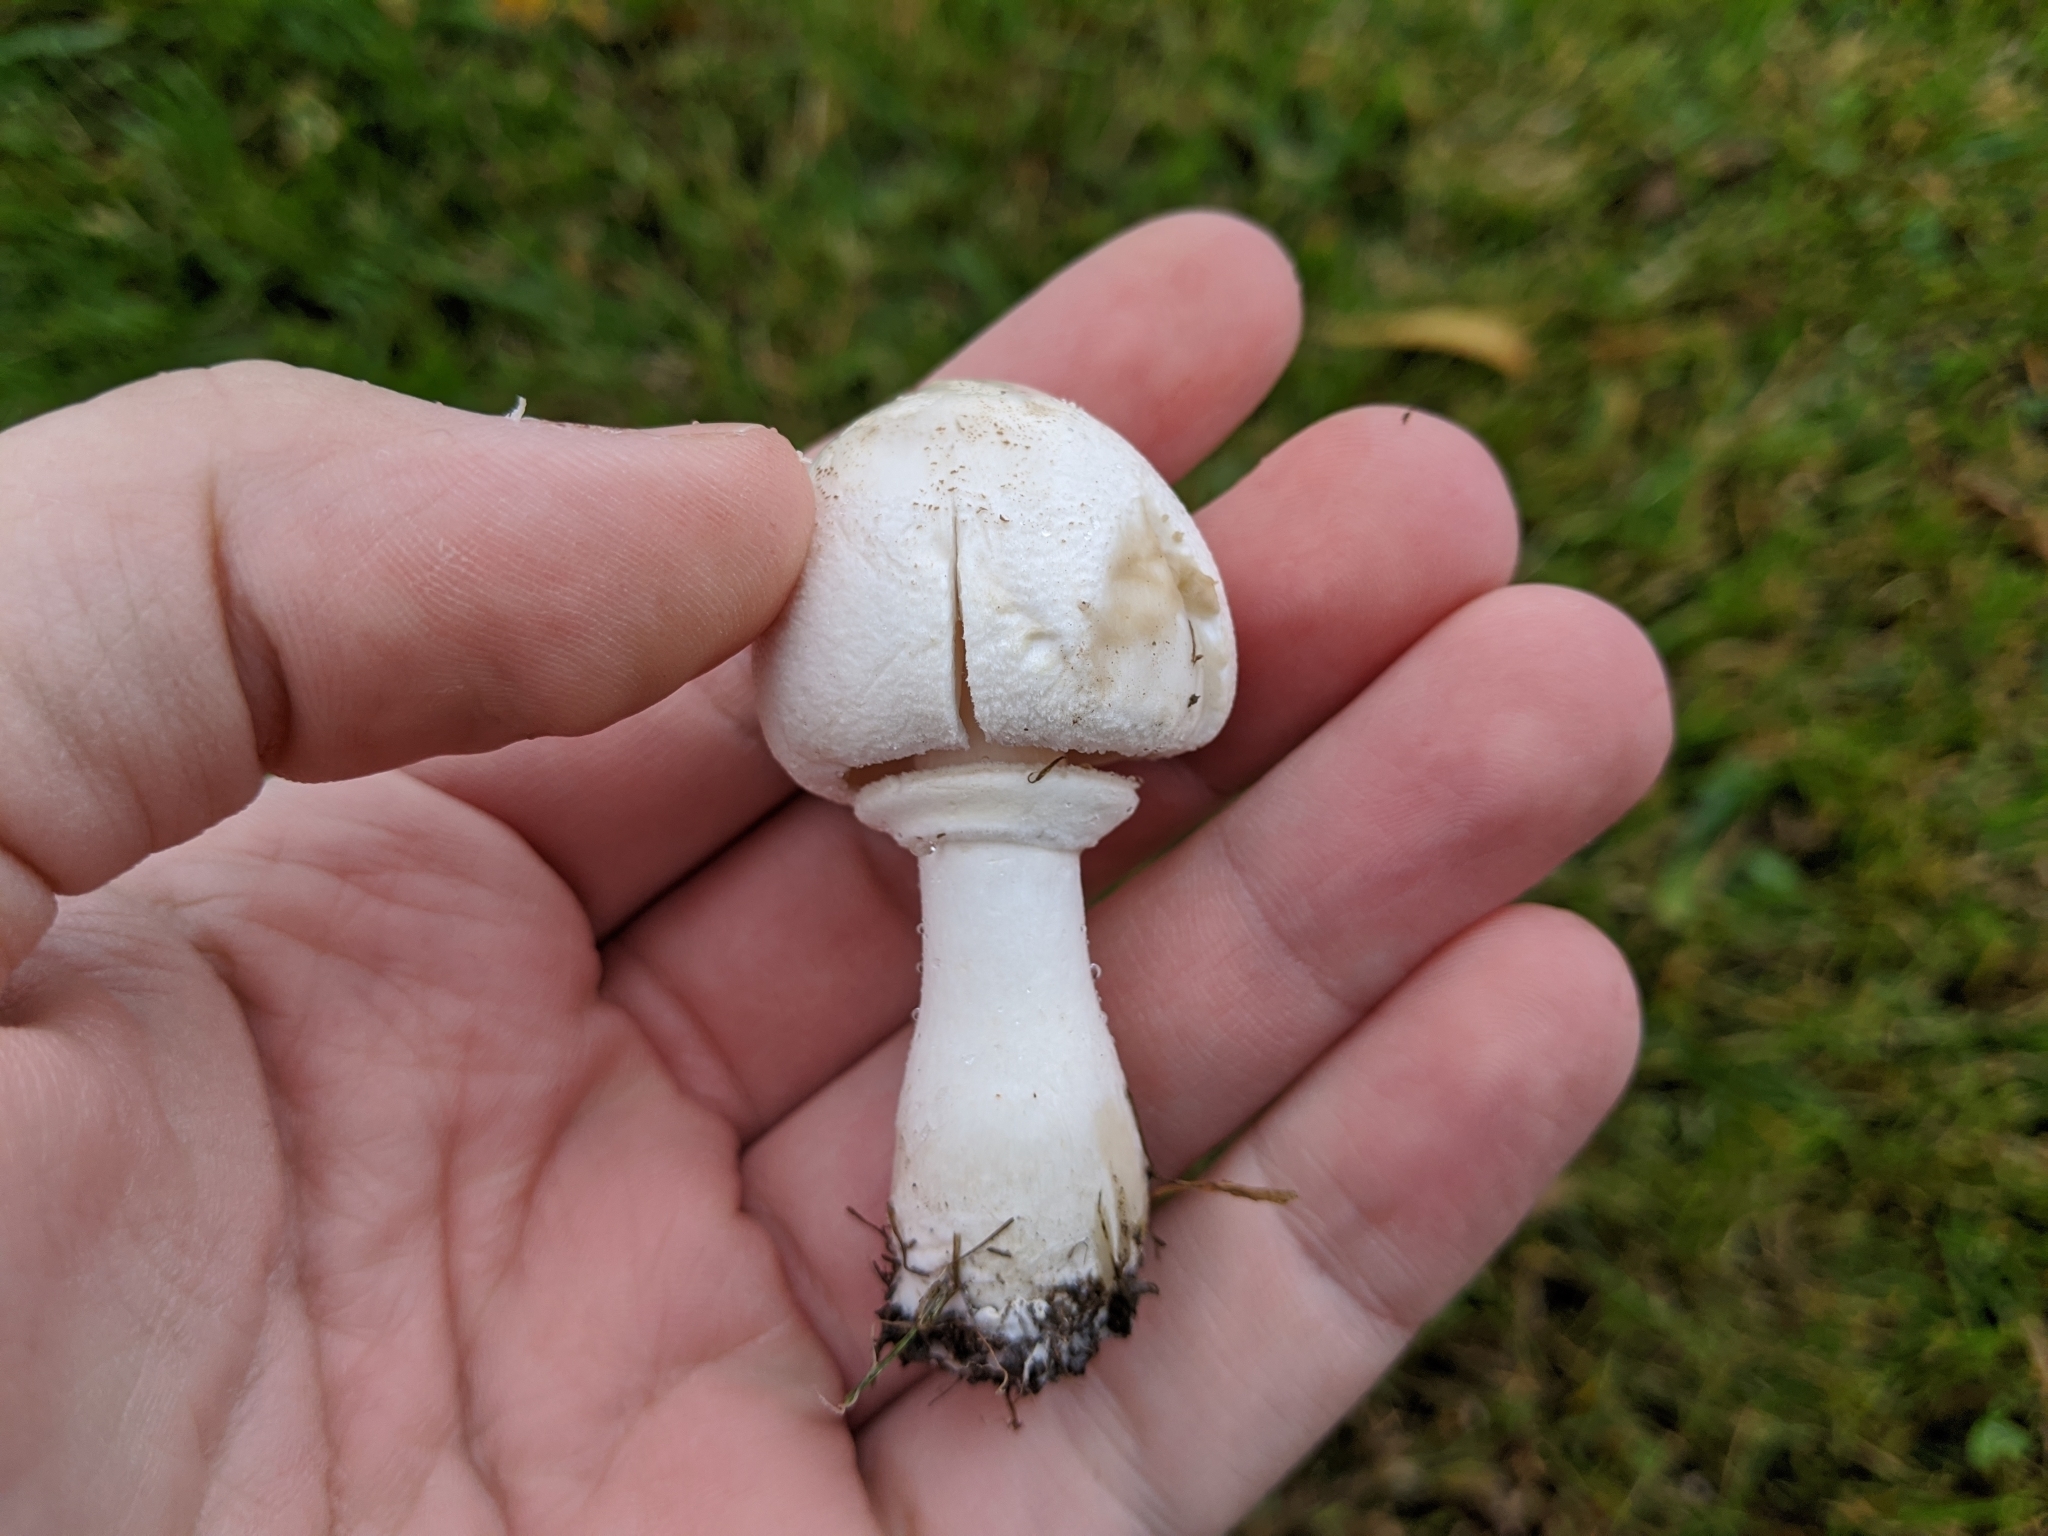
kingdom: Fungi
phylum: Basidiomycota
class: Agaricomycetes
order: Agaricales
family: Agaricaceae
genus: Leucoagaricus
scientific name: Leucoagaricus leucothites
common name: White dapperling
